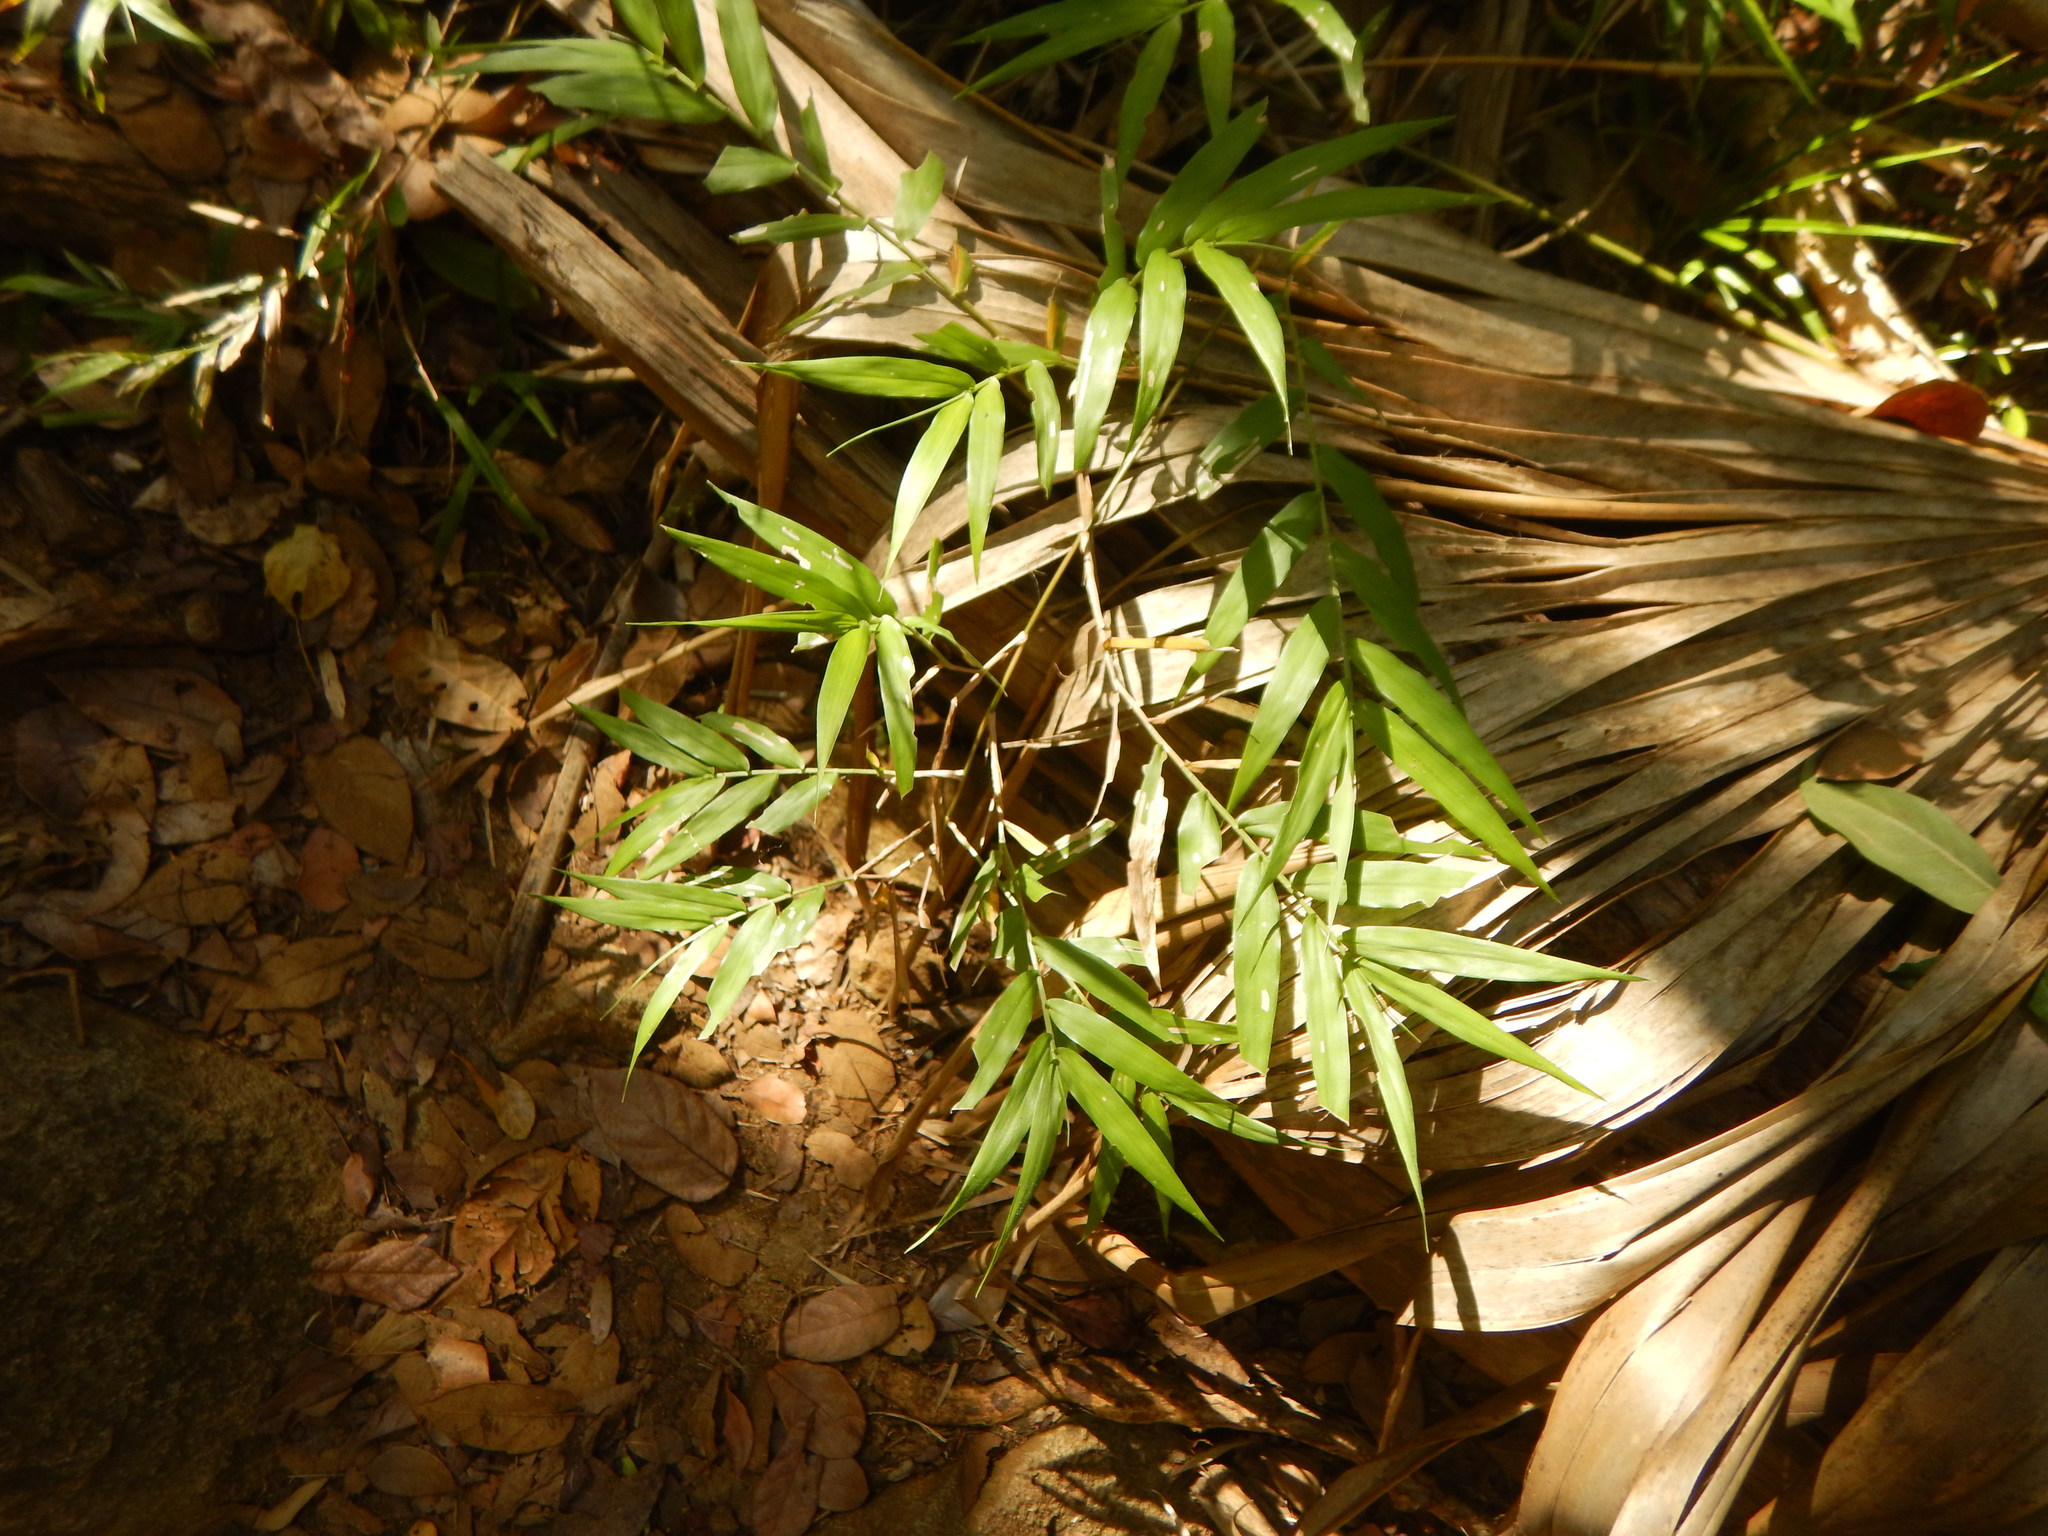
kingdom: Plantae
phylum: Tracheophyta
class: Liliopsida
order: Poales
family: Poaceae
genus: Lasiacis
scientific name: Lasiacis divaricata
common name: Smallcane
